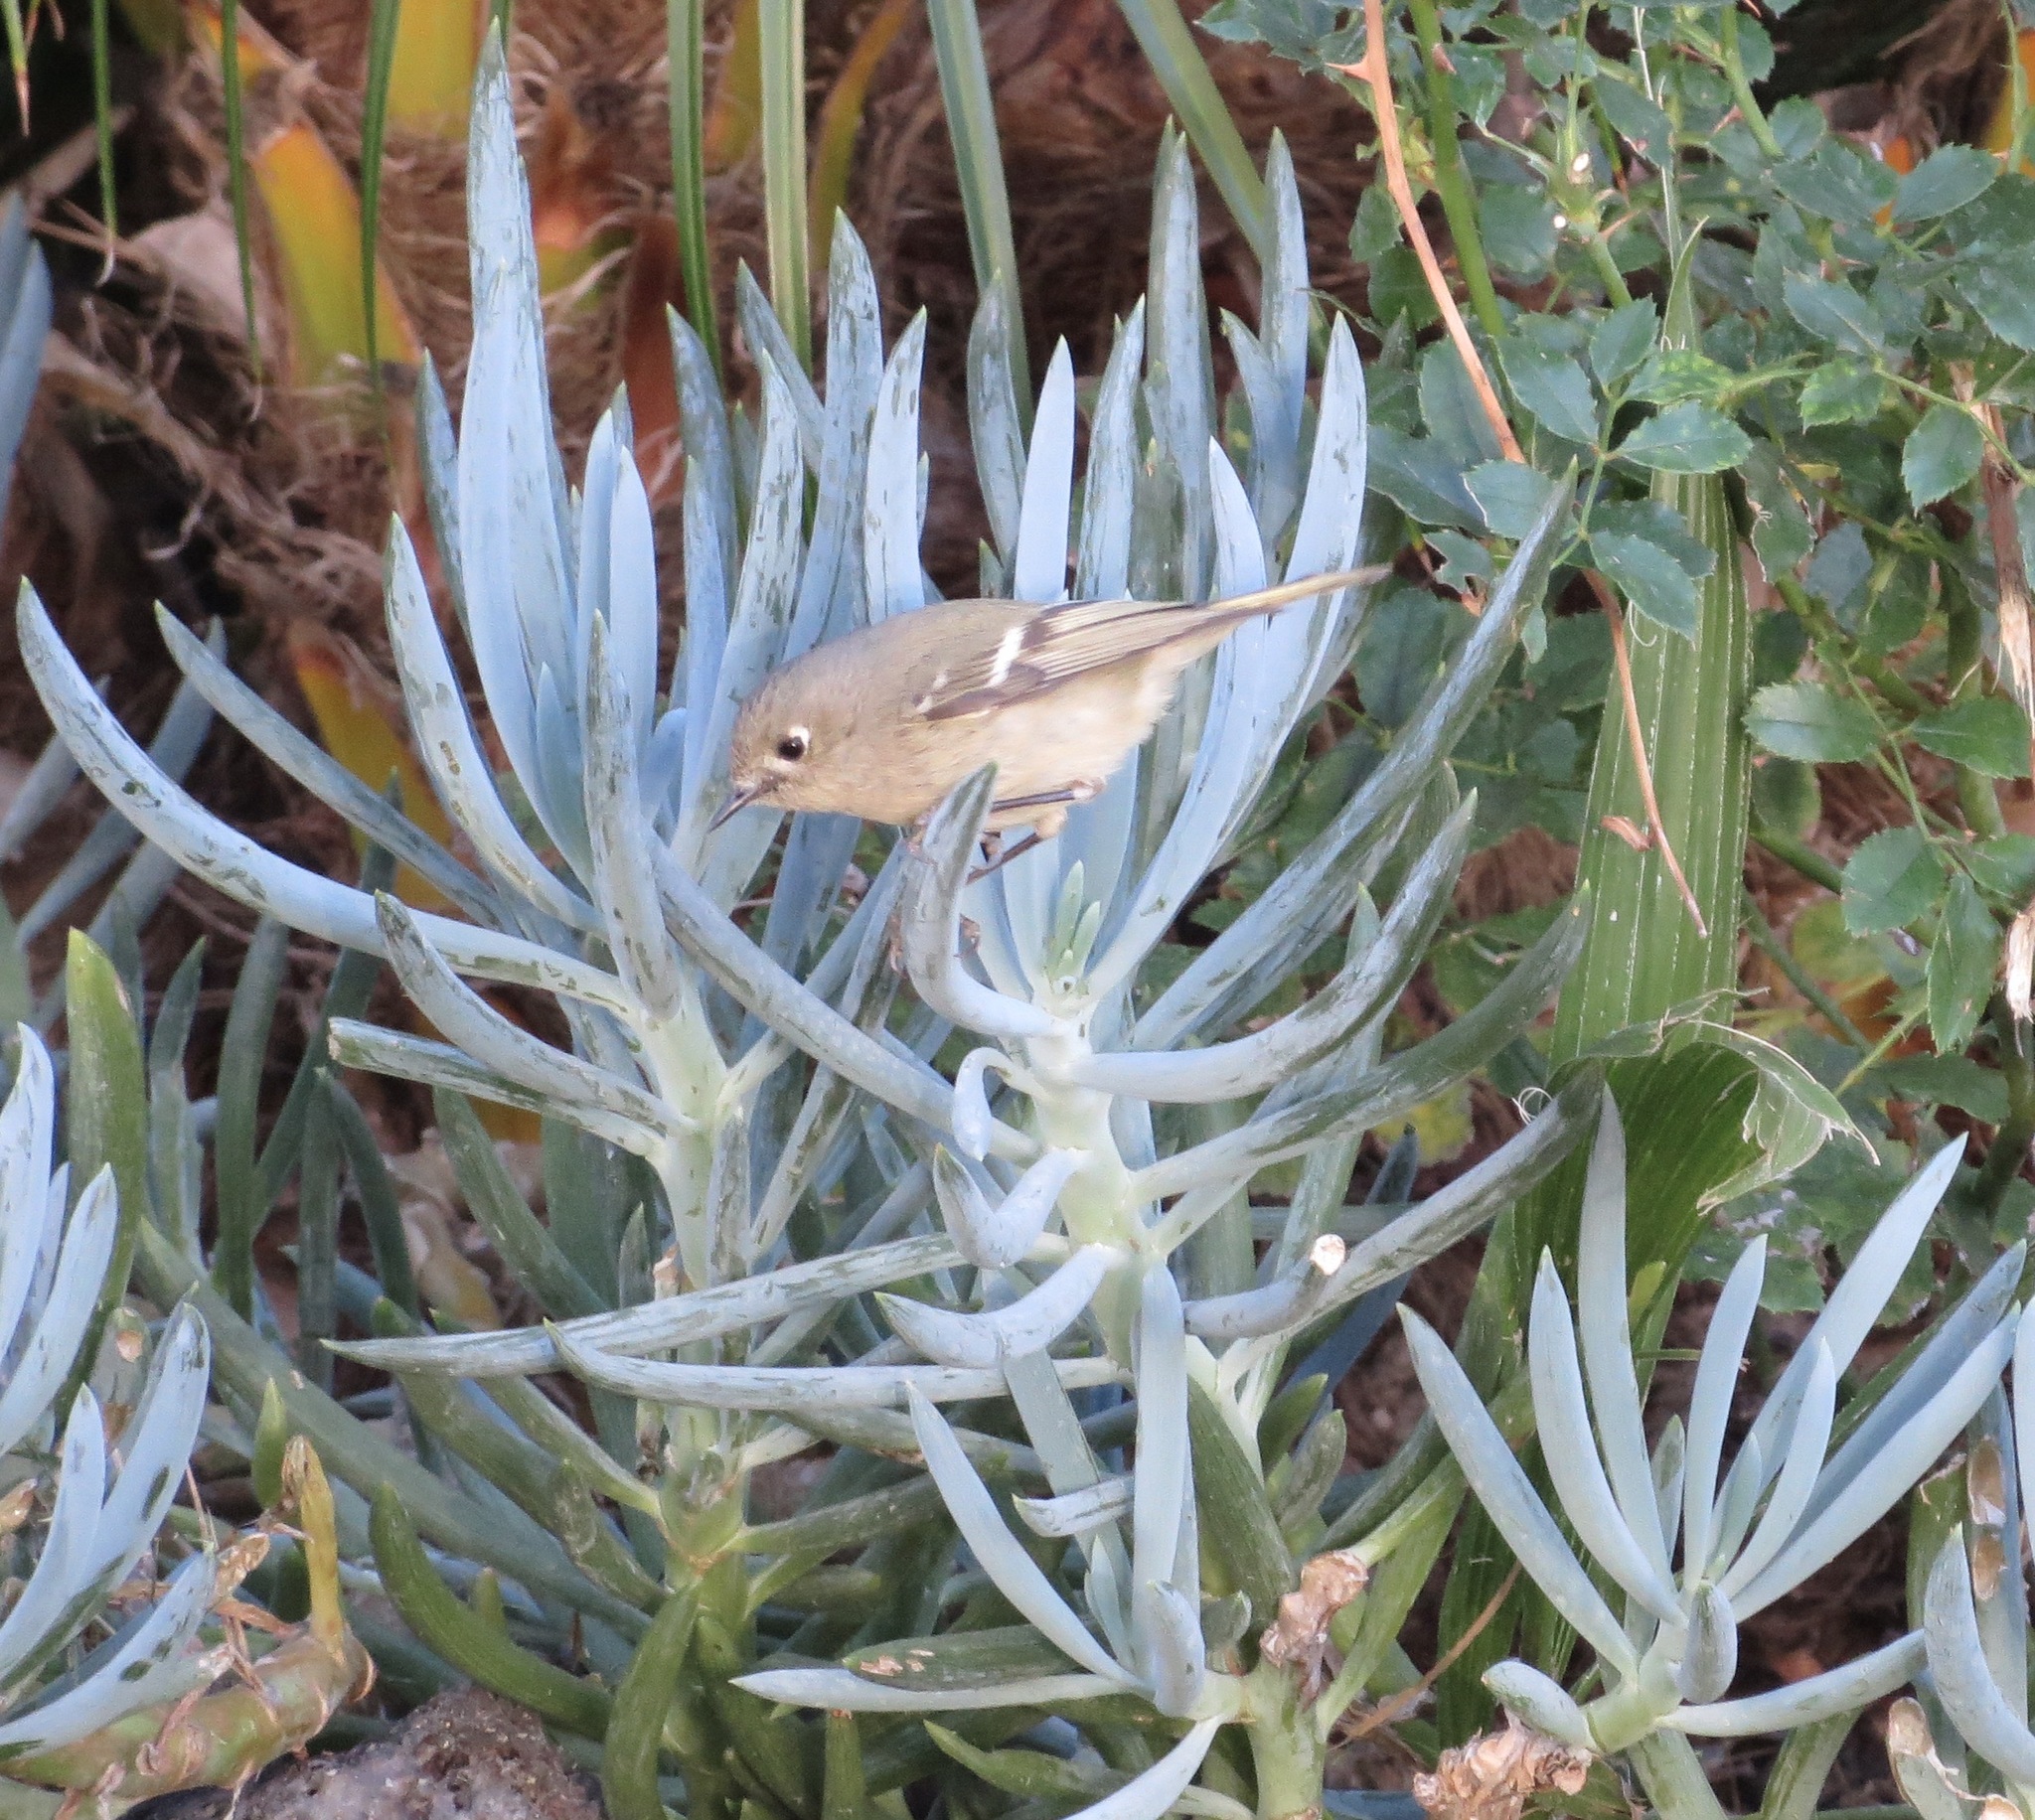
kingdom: Animalia
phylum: Chordata
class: Aves
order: Passeriformes
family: Regulidae
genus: Regulus
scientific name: Regulus calendula
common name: Ruby-crowned kinglet
